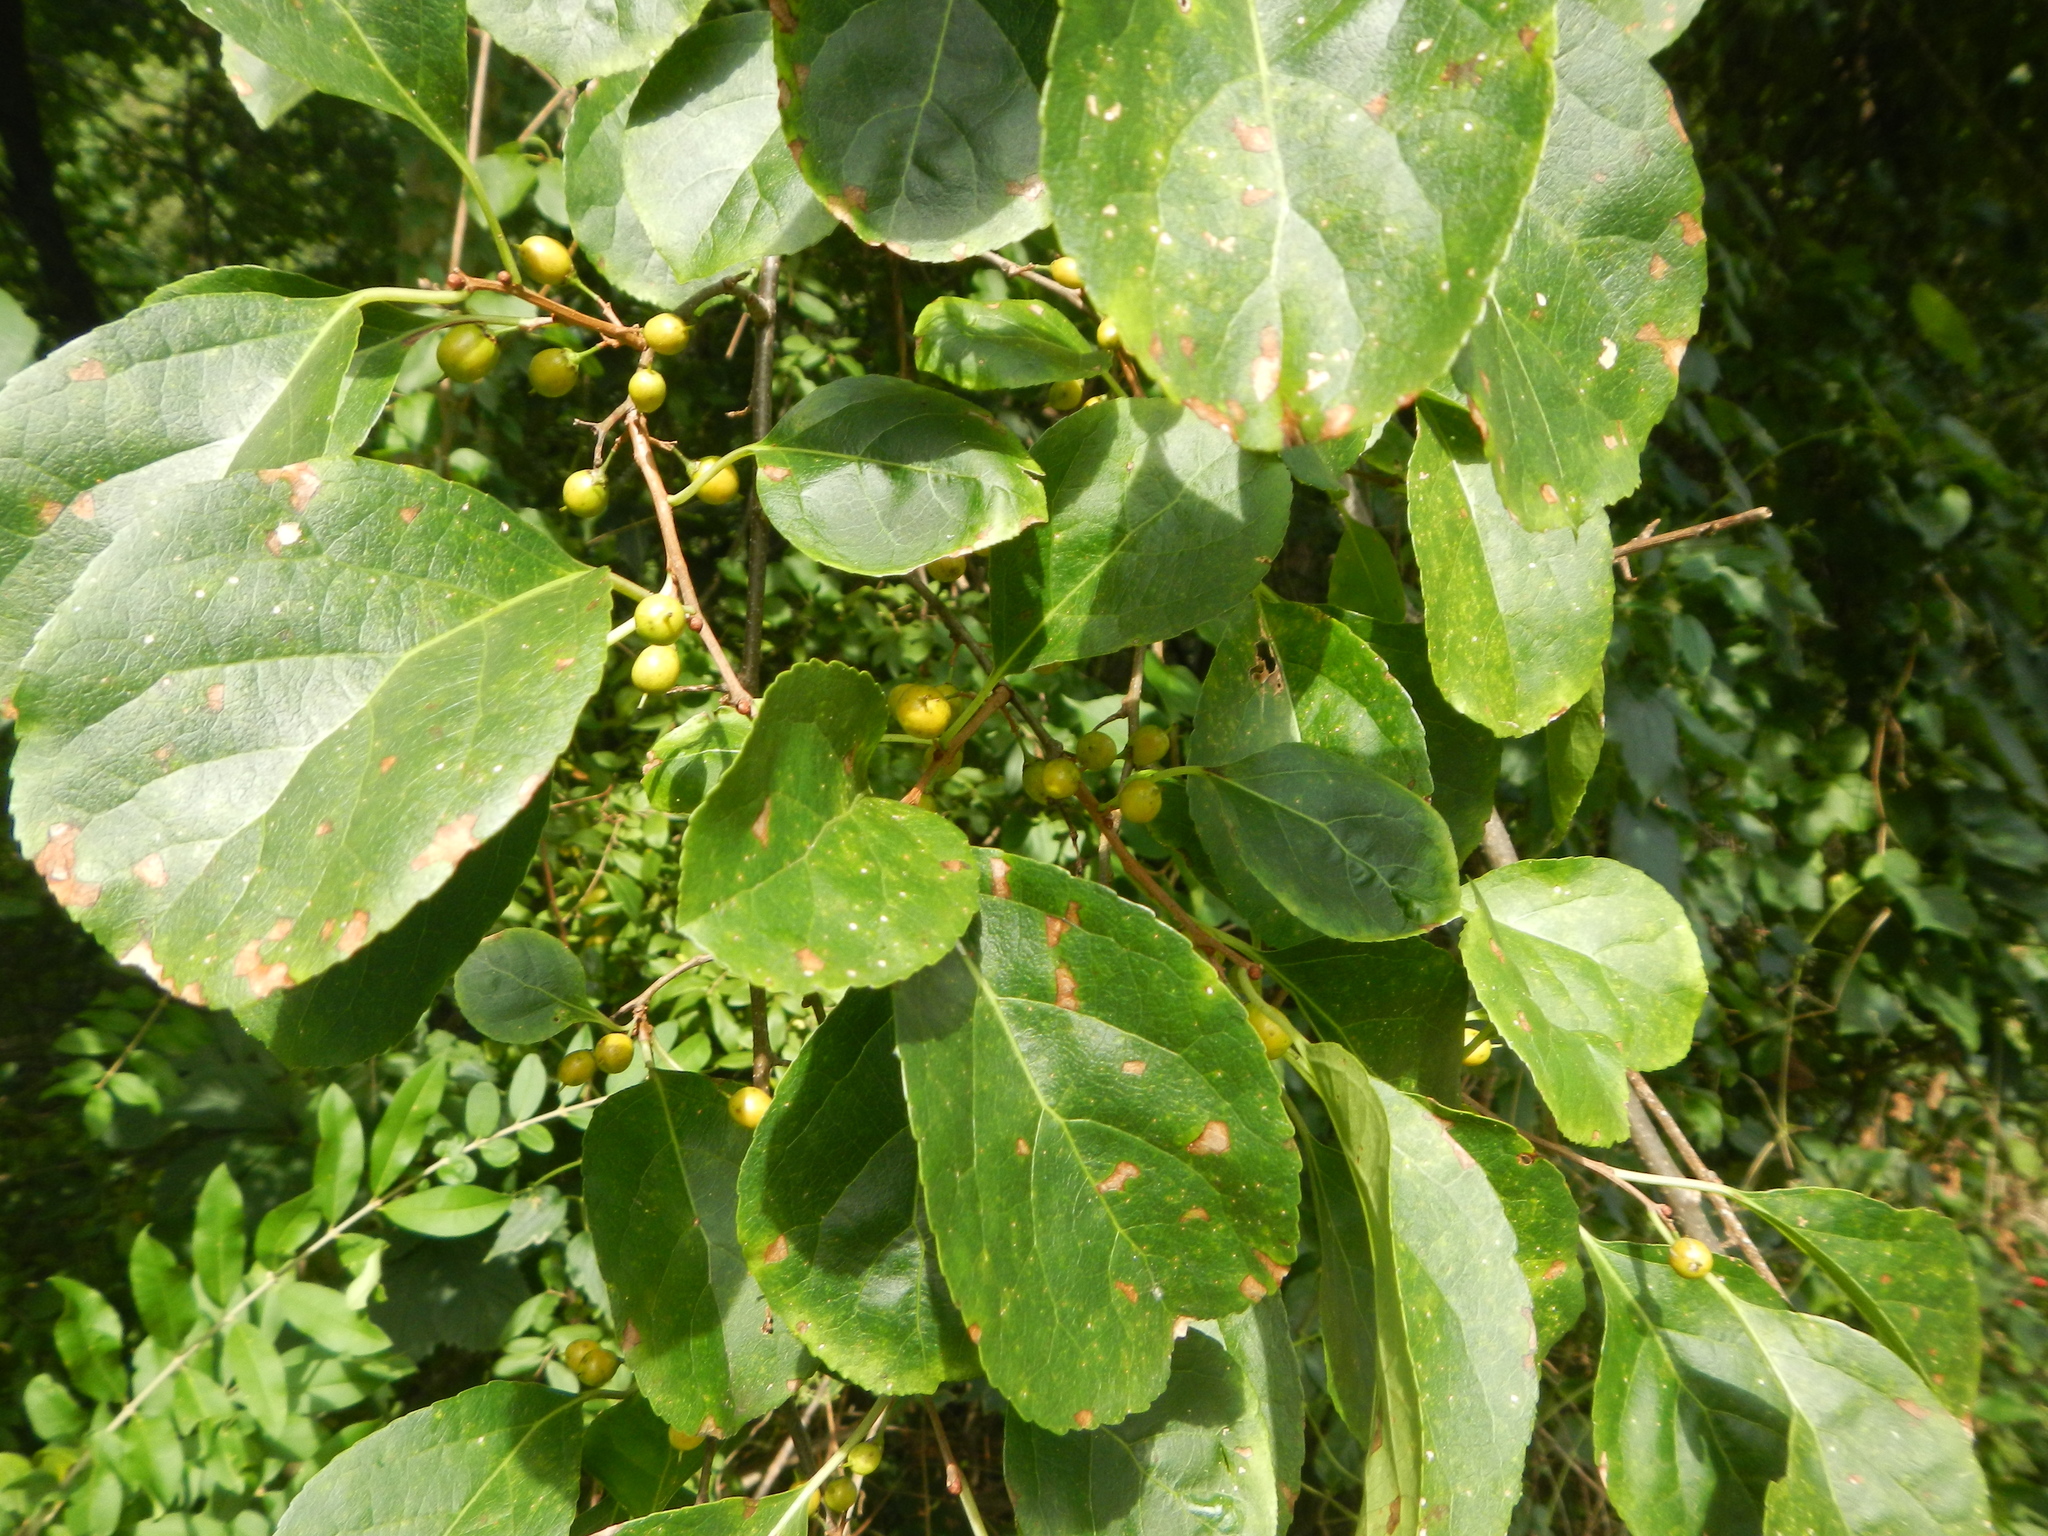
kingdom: Plantae
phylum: Tracheophyta
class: Magnoliopsida
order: Celastrales
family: Celastraceae
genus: Celastrus
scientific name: Celastrus orbiculatus
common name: Oriental bittersweet
